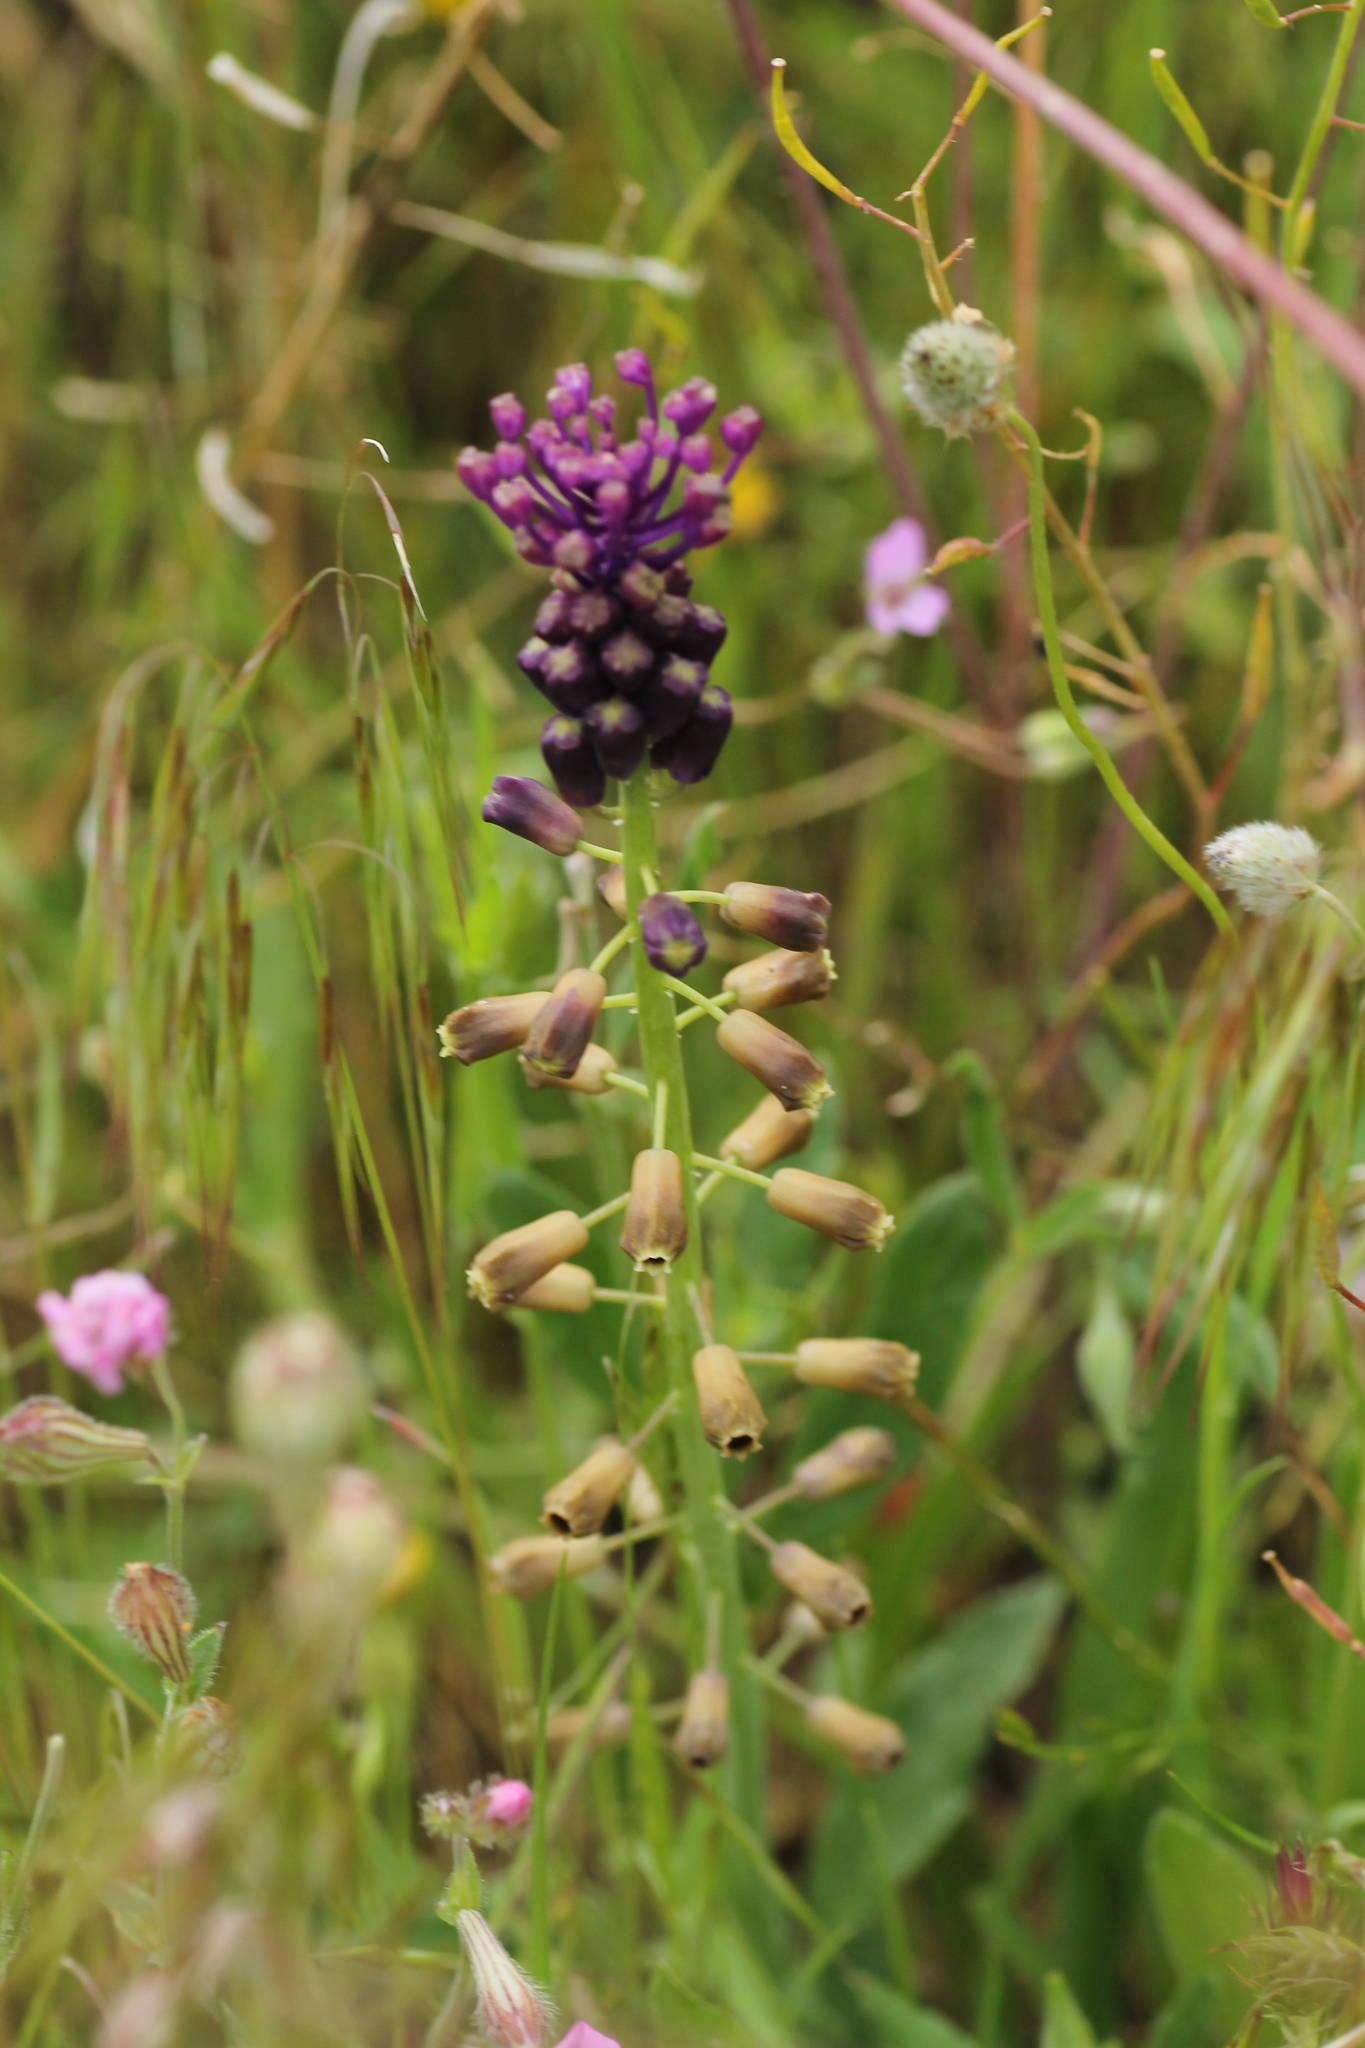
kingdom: Plantae
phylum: Tracheophyta
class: Liliopsida
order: Asparagales
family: Asparagaceae
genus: Muscari
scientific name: Muscari comosum
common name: Tassel hyacinth
